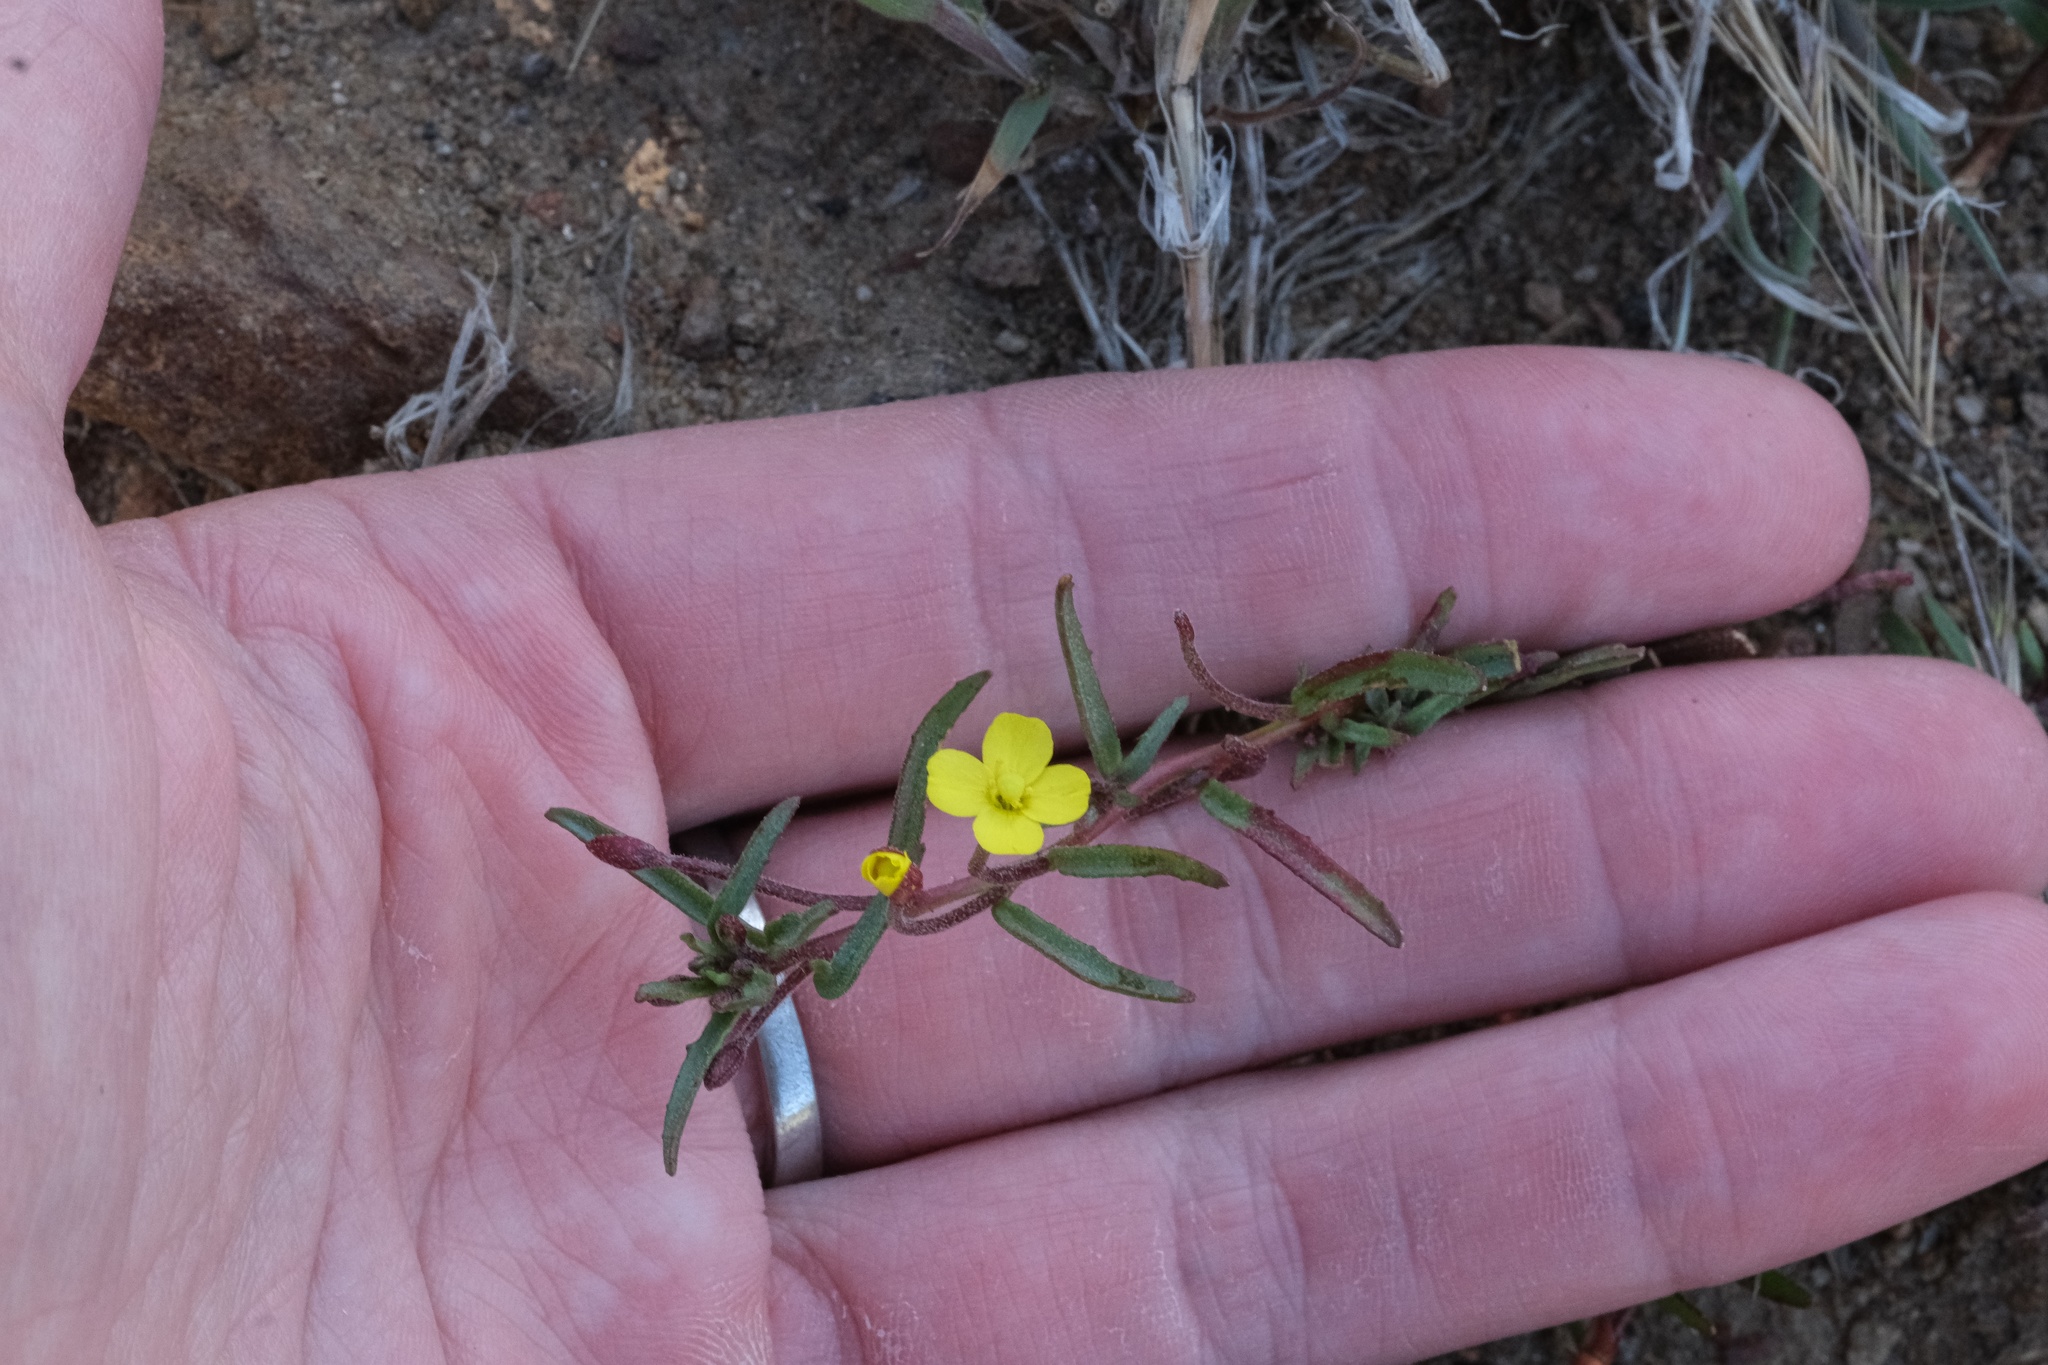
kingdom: Plantae
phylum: Tracheophyta
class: Magnoliopsida
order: Myrtales
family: Onagraceae
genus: Camissonia
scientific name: Camissonia strigulosa
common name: Contorted-primrose
